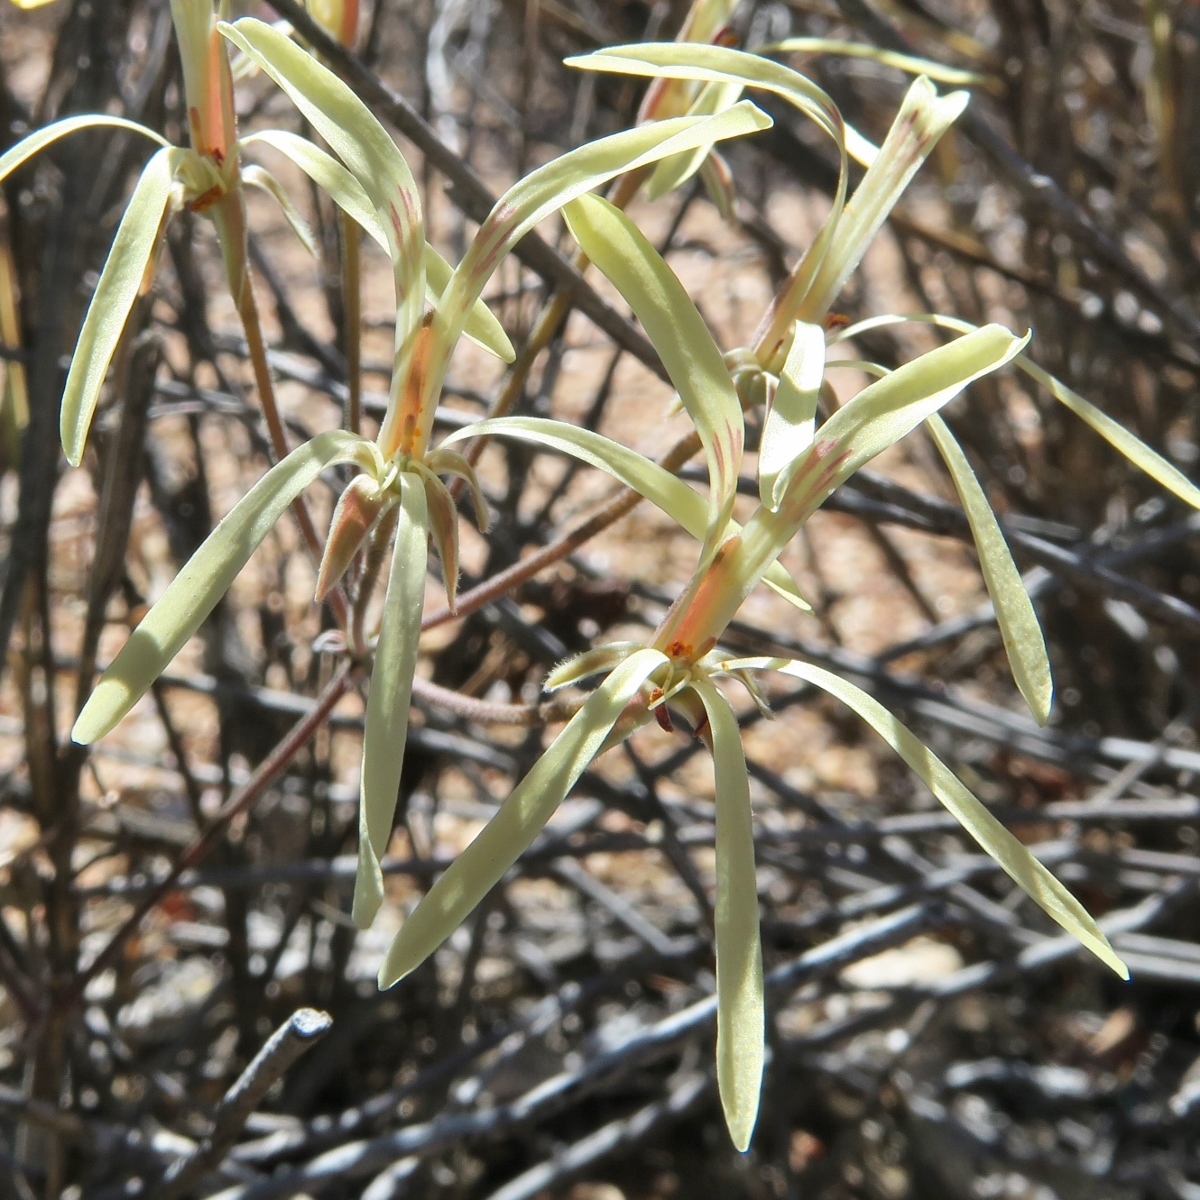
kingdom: Plantae
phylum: Tracheophyta
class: Magnoliopsida
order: Geraniales
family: Geraniaceae
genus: Pelargonium
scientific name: Pelargonium angustipetalum
